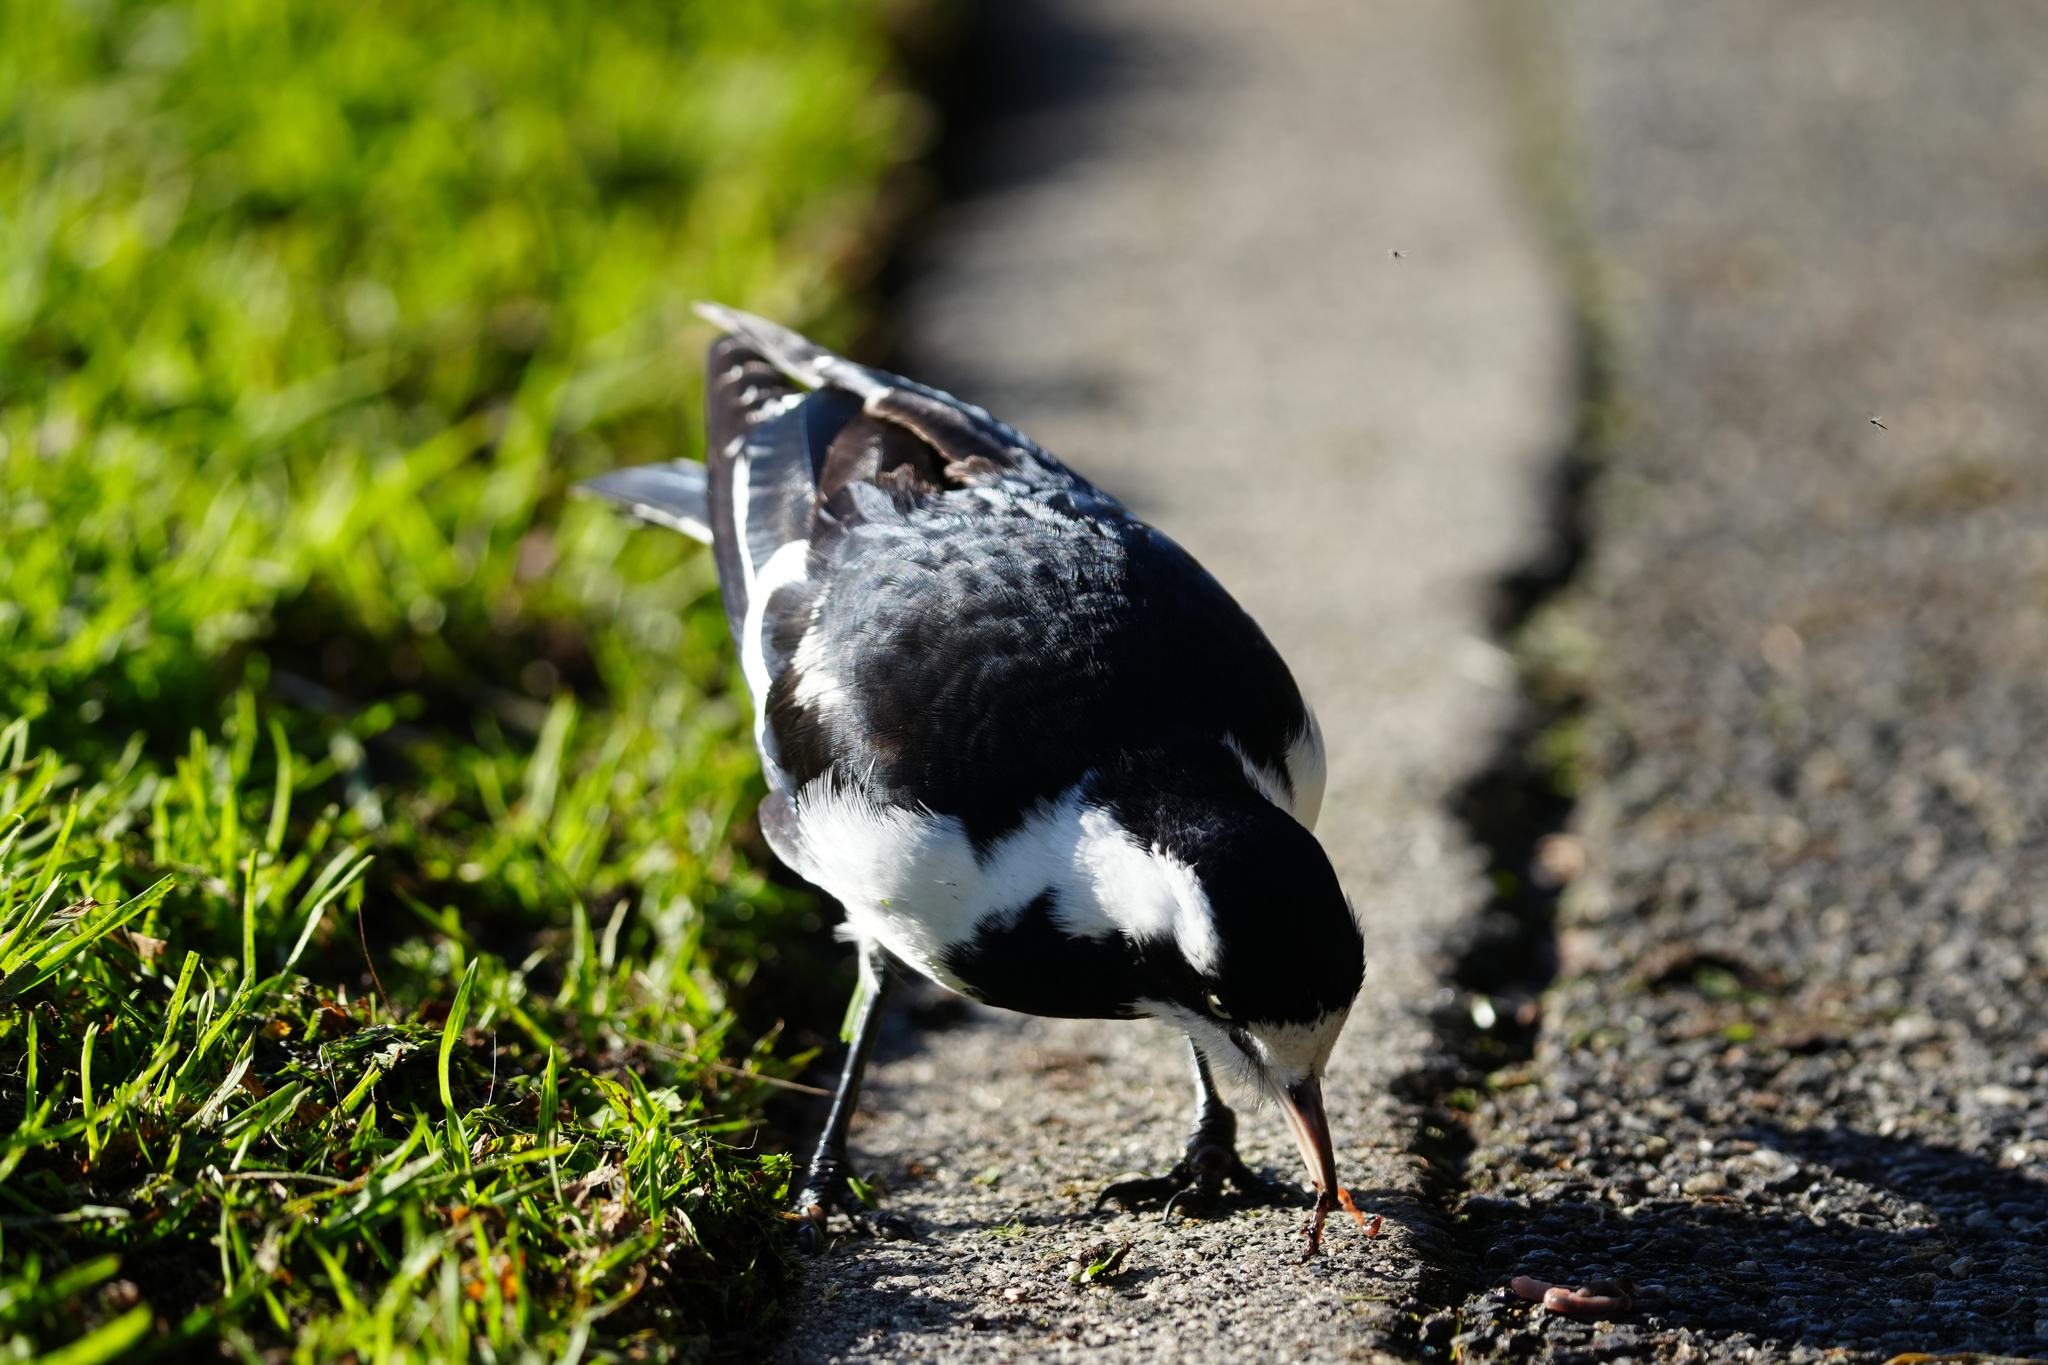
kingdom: Animalia
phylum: Chordata
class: Aves
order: Passeriformes
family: Monarchidae
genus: Grallina
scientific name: Grallina cyanoleuca
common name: Magpie-lark
